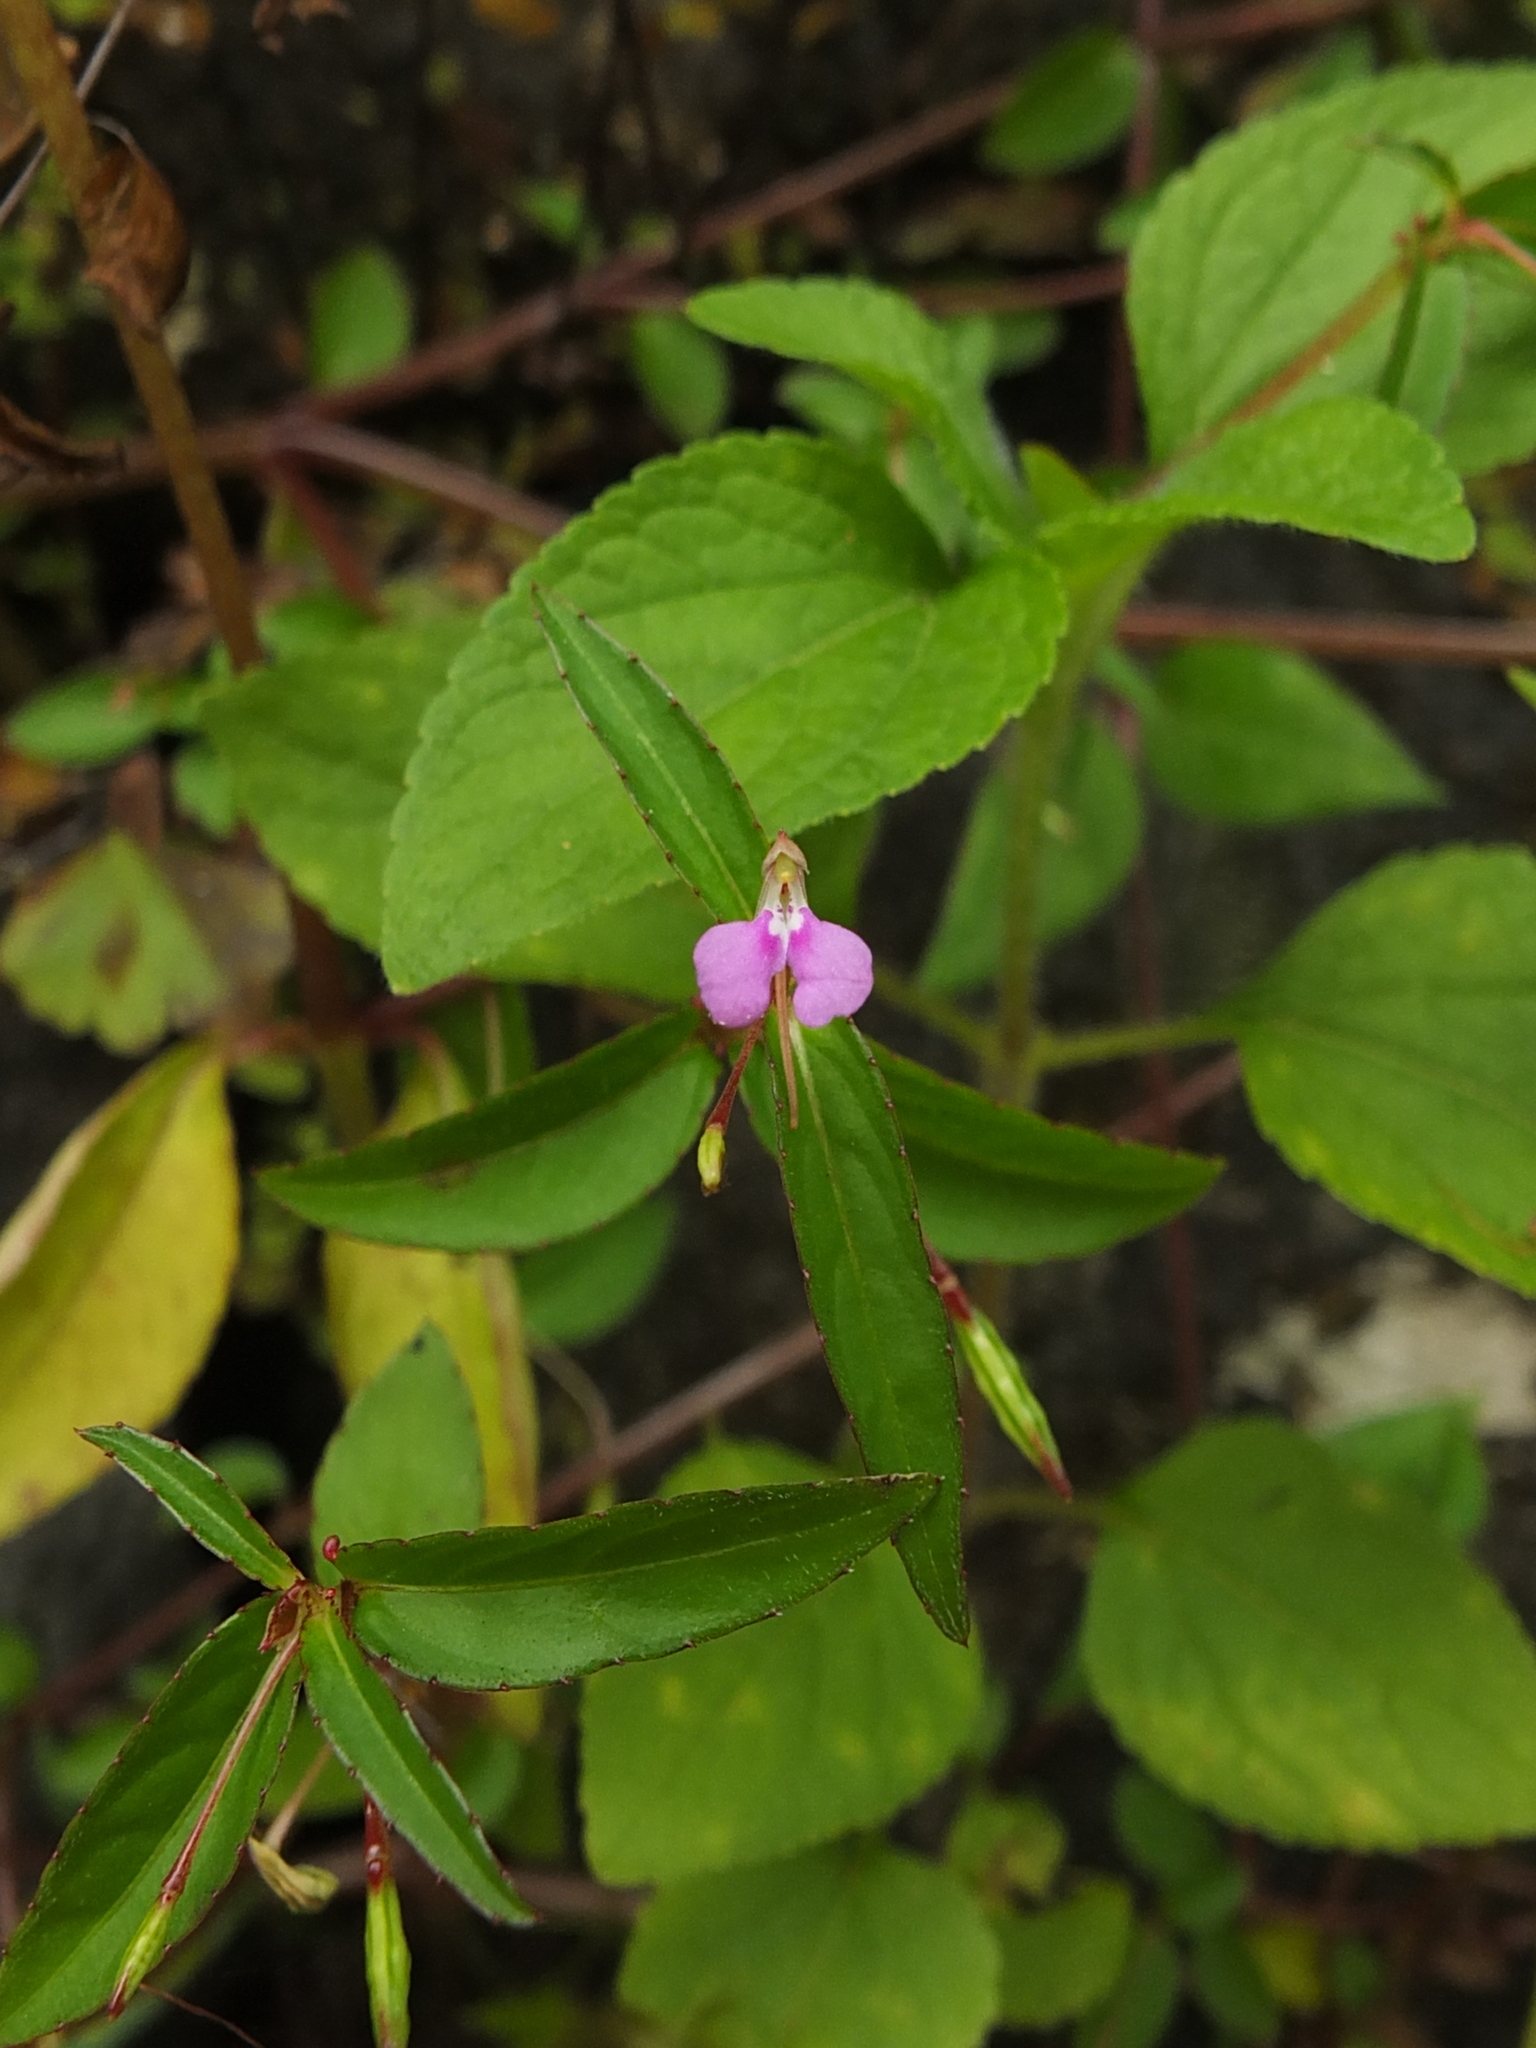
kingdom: Plantae
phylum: Tracheophyta
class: Magnoliopsida
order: Ericales
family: Balsaminaceae
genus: Impatiens
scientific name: Impatiens minor
